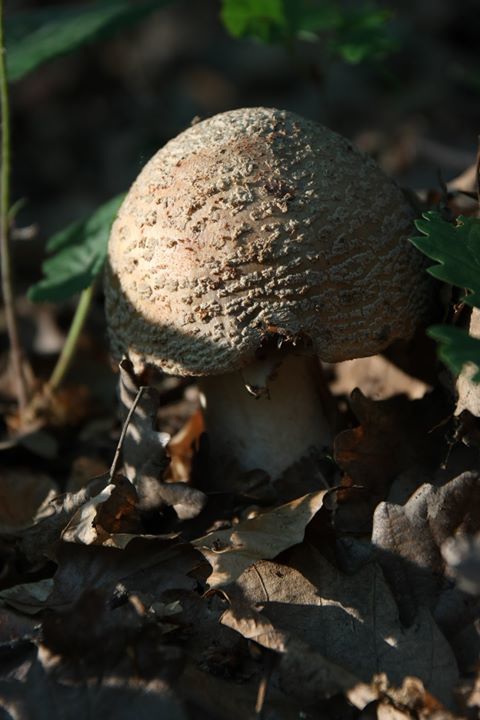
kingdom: Fungi
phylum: Basidiomycota
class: Agaricomycetes
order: Agaricales
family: Amanitaceae
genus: Amanita
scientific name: Amanita rubescens
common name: Blusher
